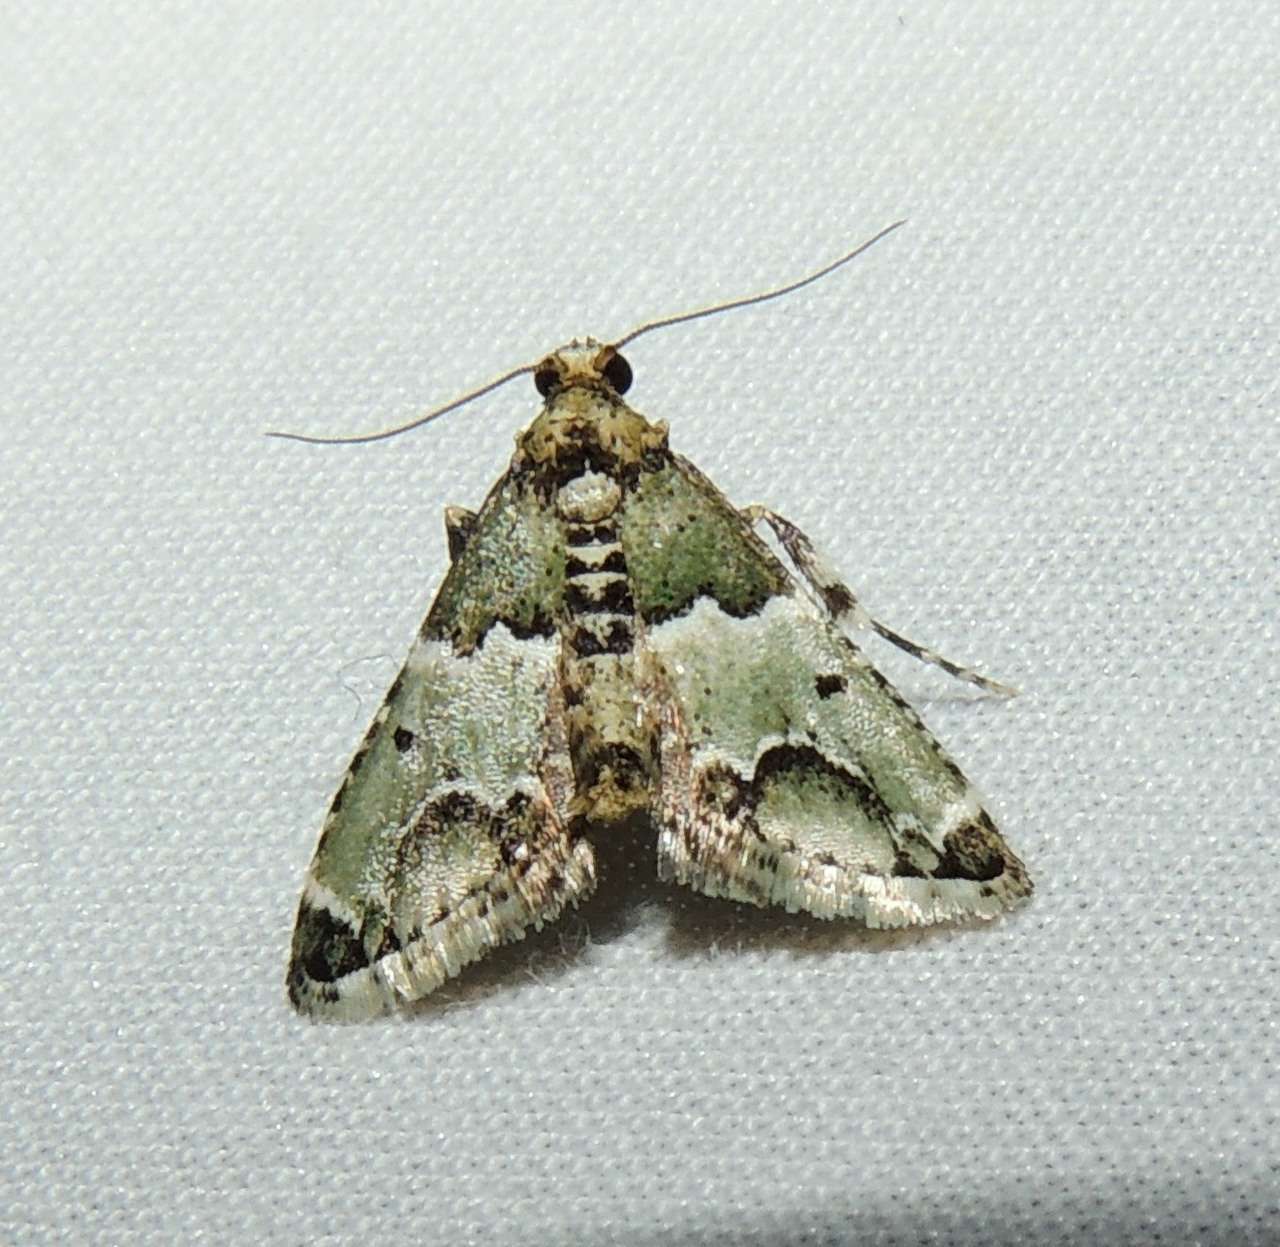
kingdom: Animalia
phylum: Arthropoda
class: Insecta
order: Lepidoptera
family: Pyralidae
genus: Arescoptera
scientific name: Arescoptera idiotypa
